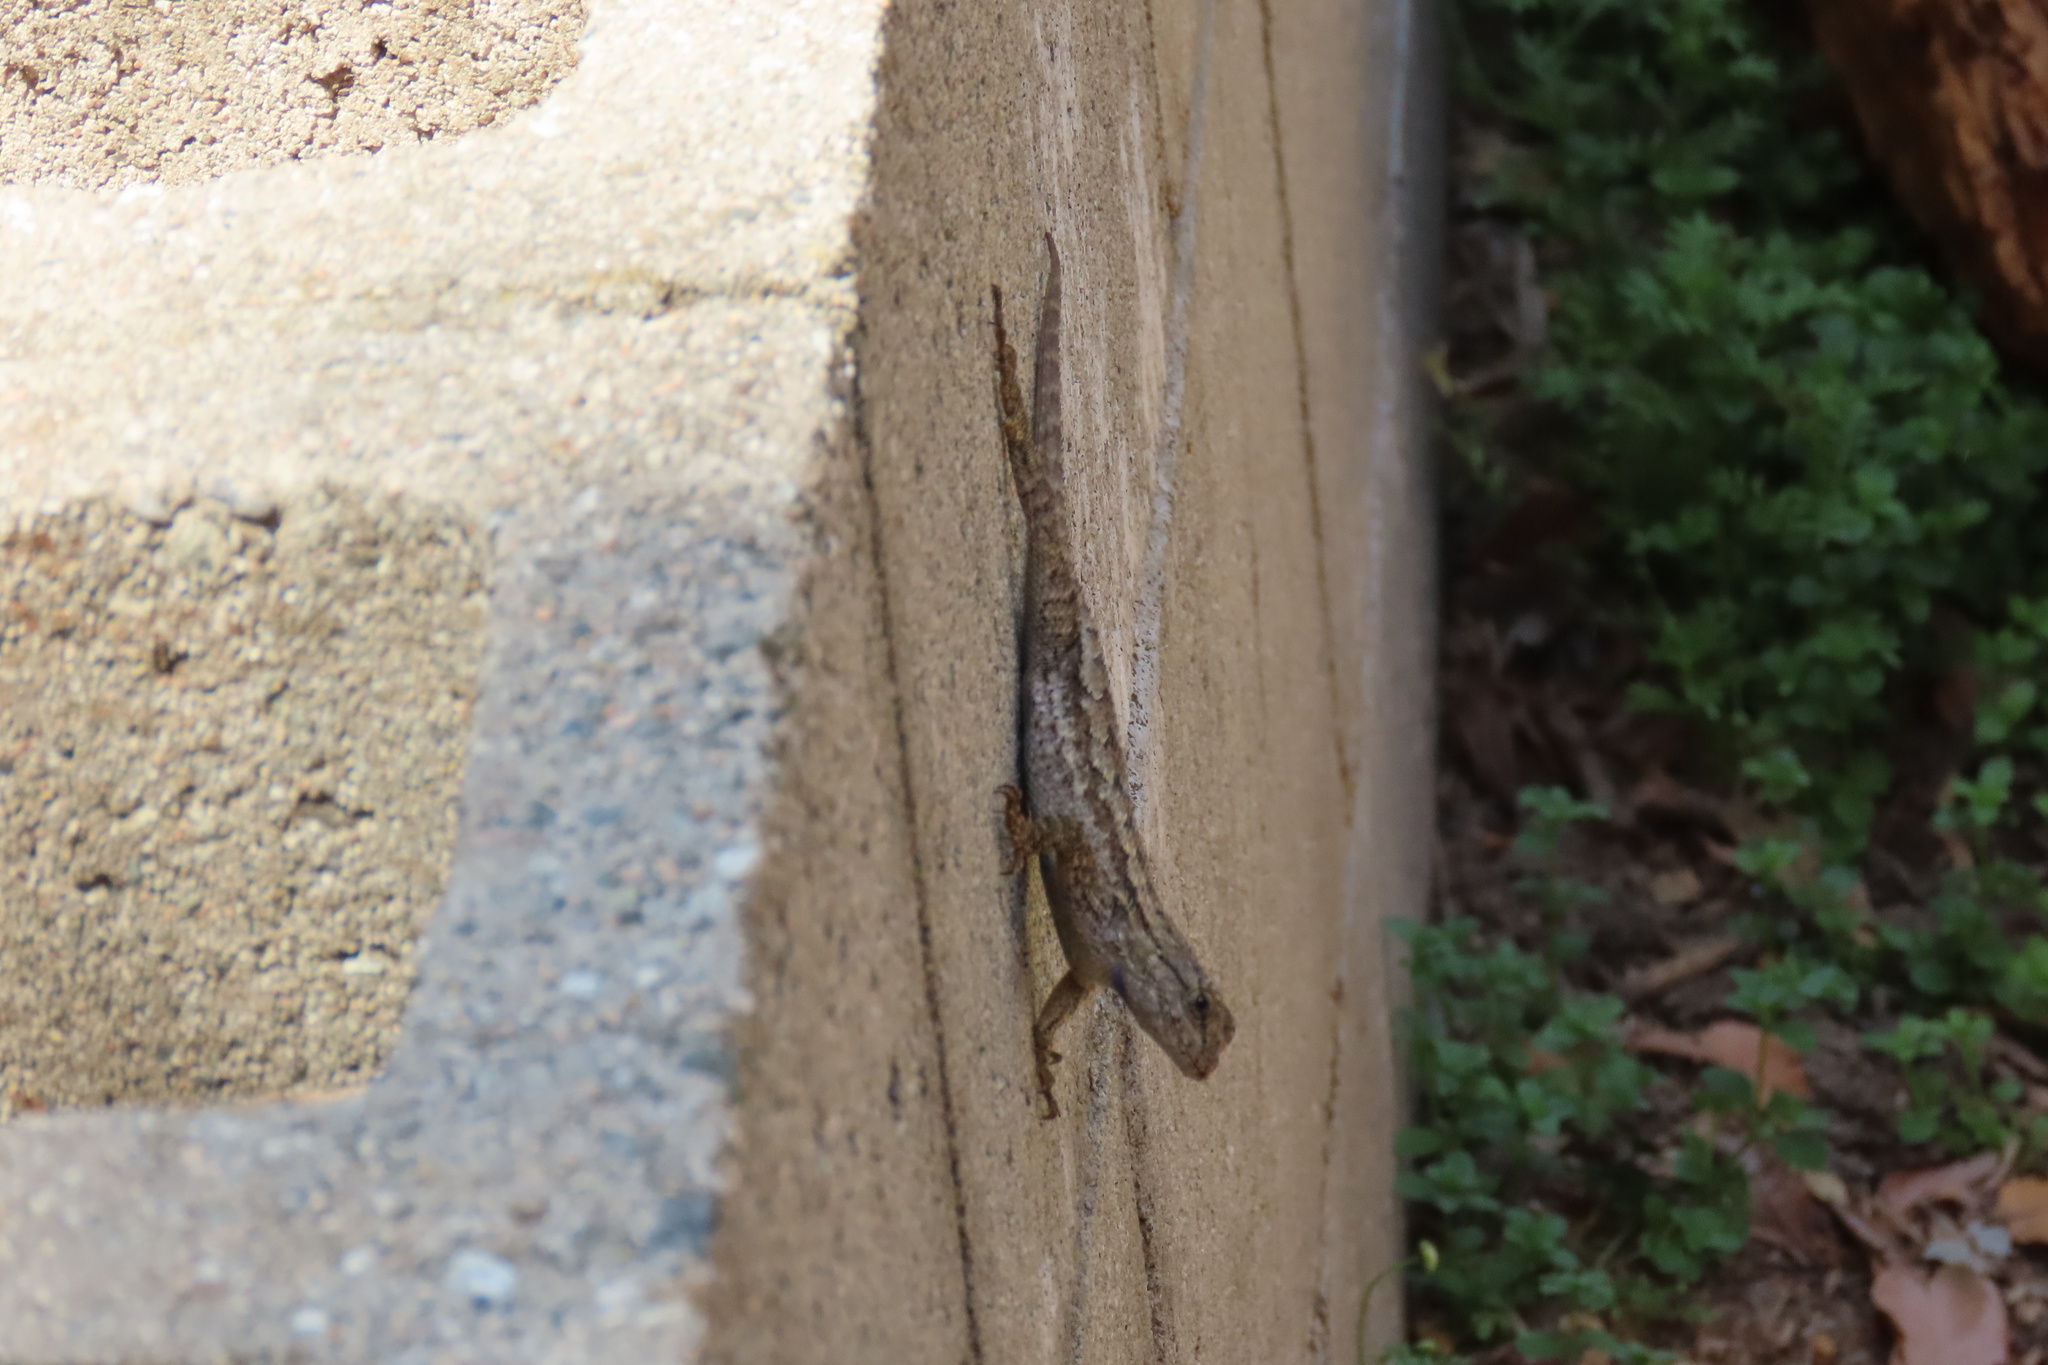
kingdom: Animalia
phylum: Chordata
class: Squamata
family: Phrynosomatidae
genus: Sceloporus
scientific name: Sceloporus occidentalis
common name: Western fence lizard
